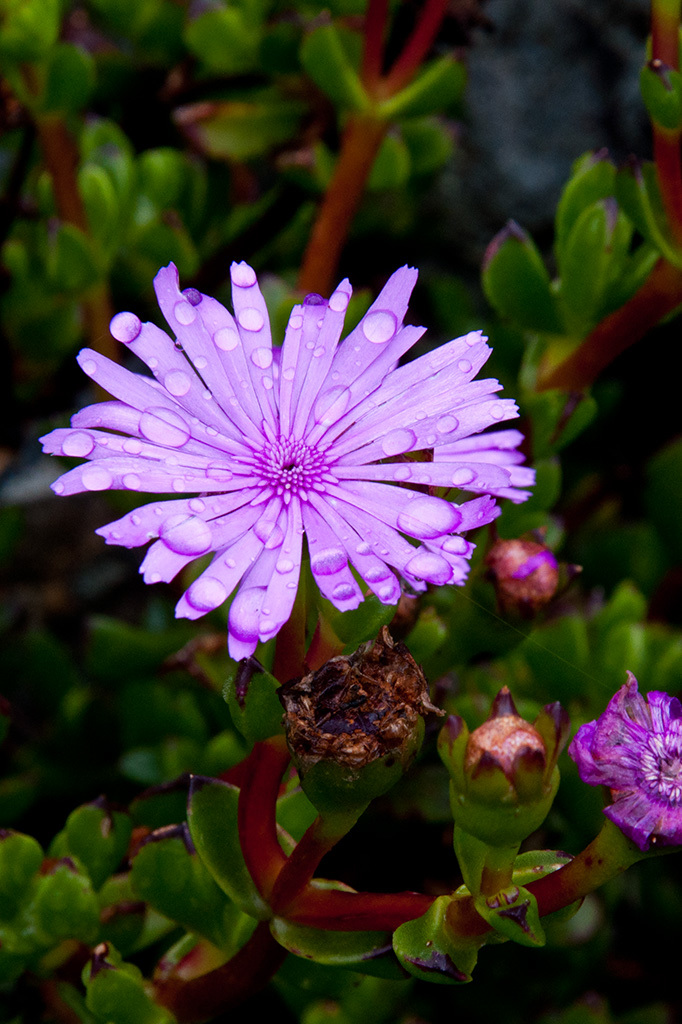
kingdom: Plantae
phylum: Tracheophyta
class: Magnoliopsida
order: Caryophyllales
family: Aizoaceae
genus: Erepsia
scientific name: Erepsia inclaudens
